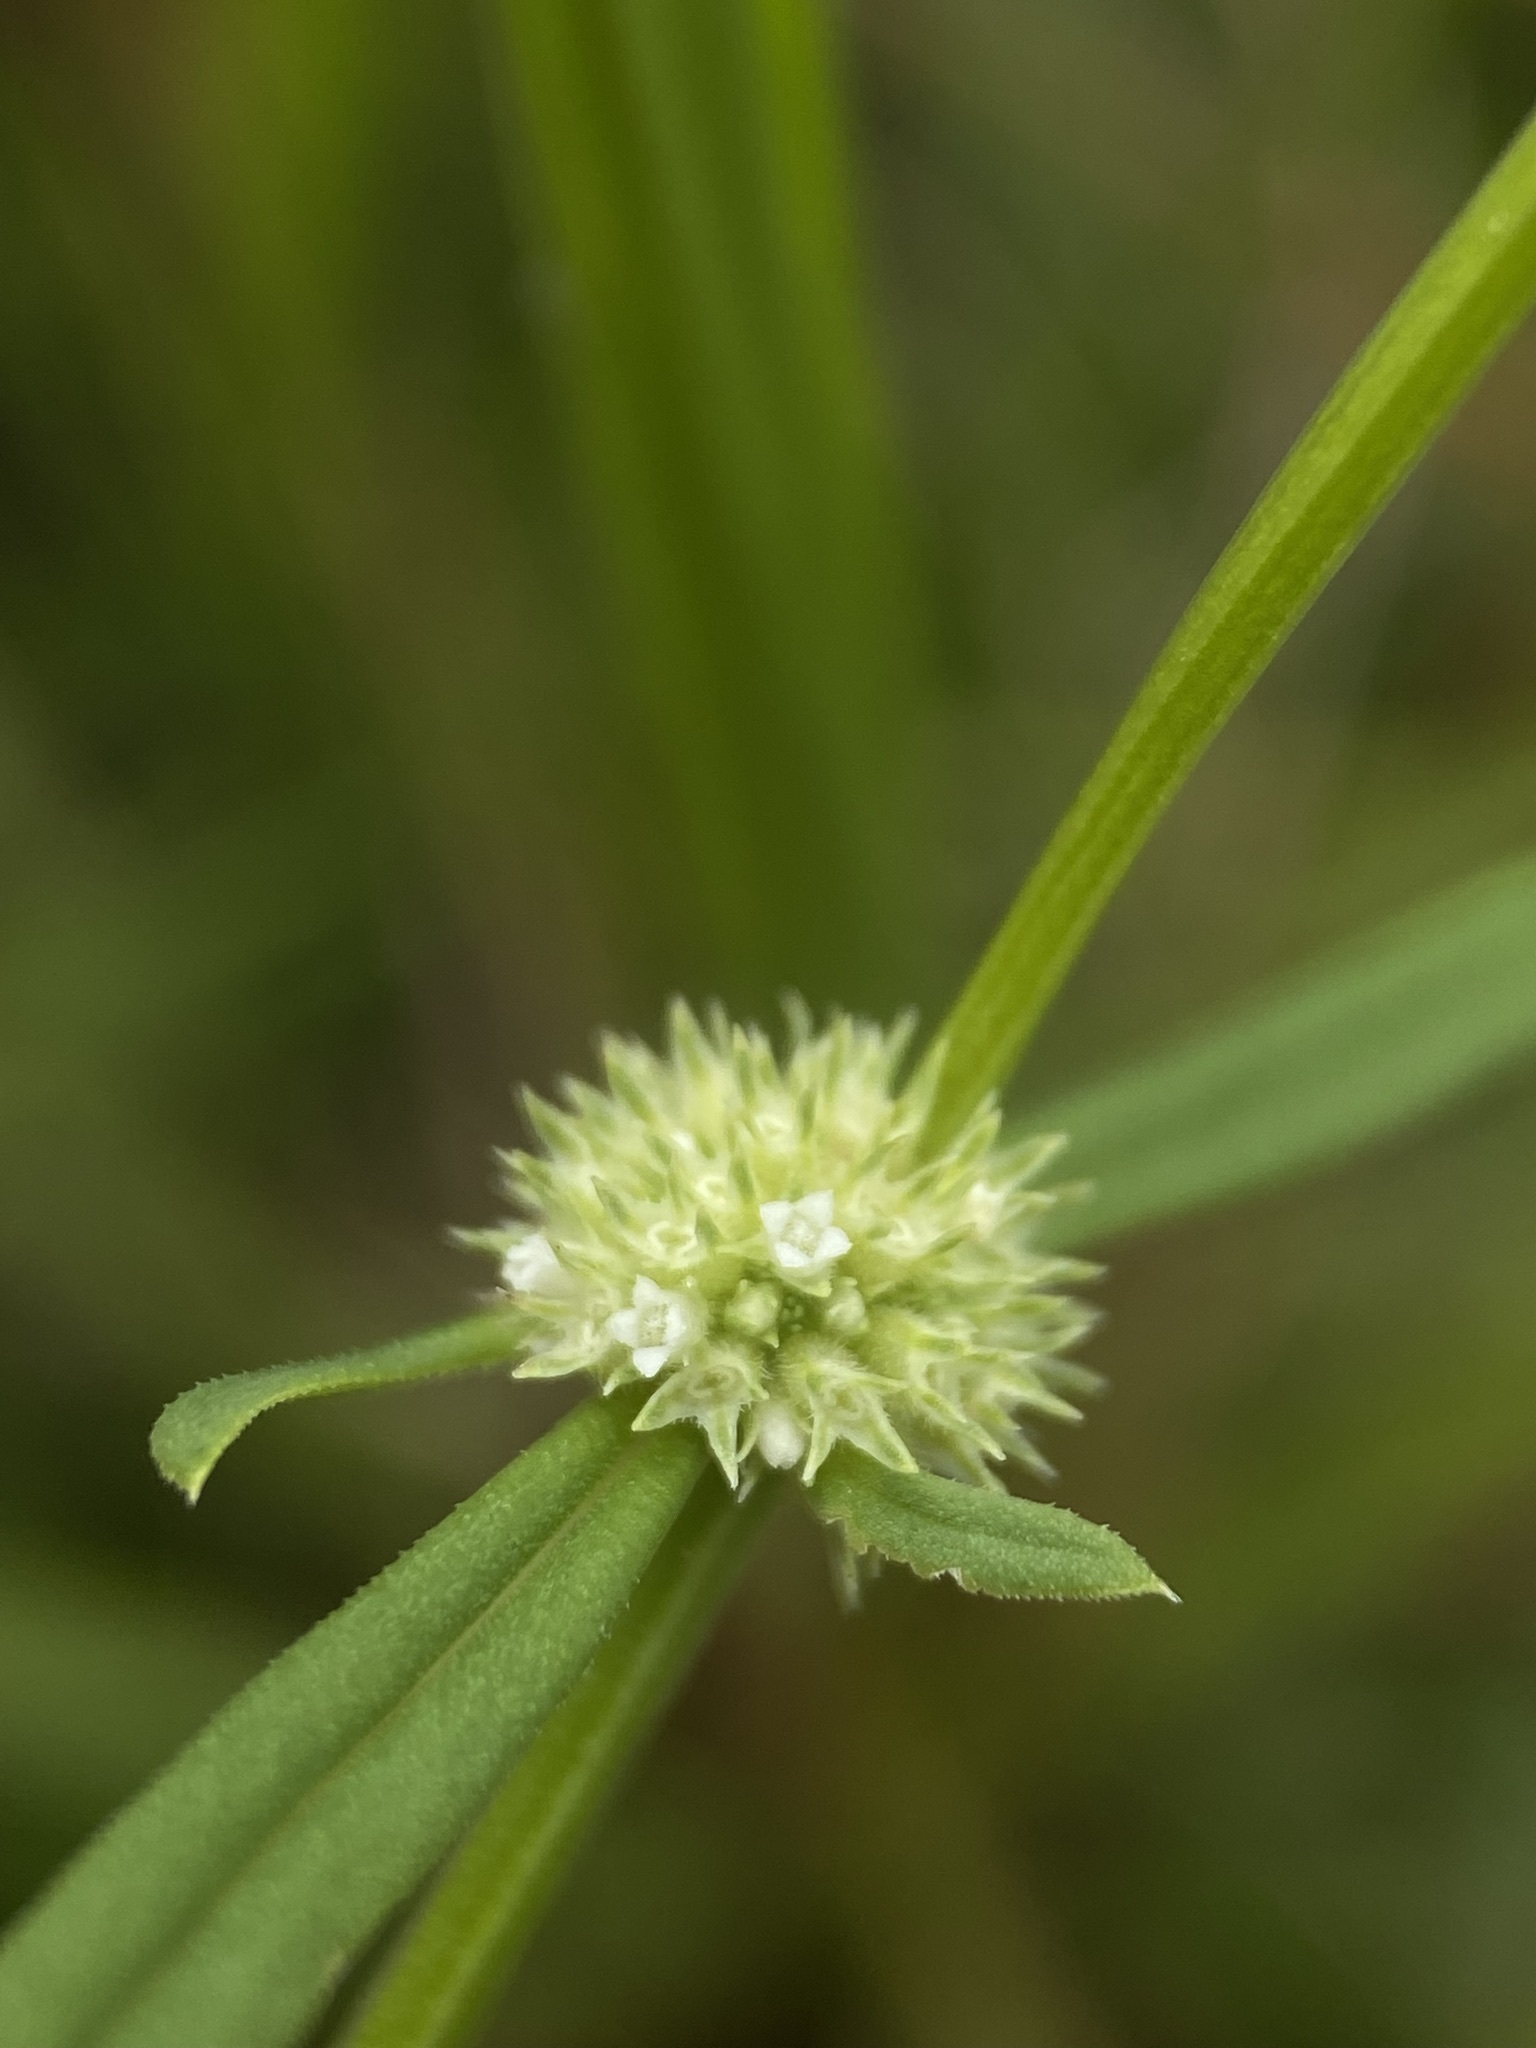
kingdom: Plantae
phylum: Tracheophyta
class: Magnoliopsida
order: Gentianales
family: Rubiaceae
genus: Spermacoce
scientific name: Spermacoce prostrata
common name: Prostrate false buttonweed
